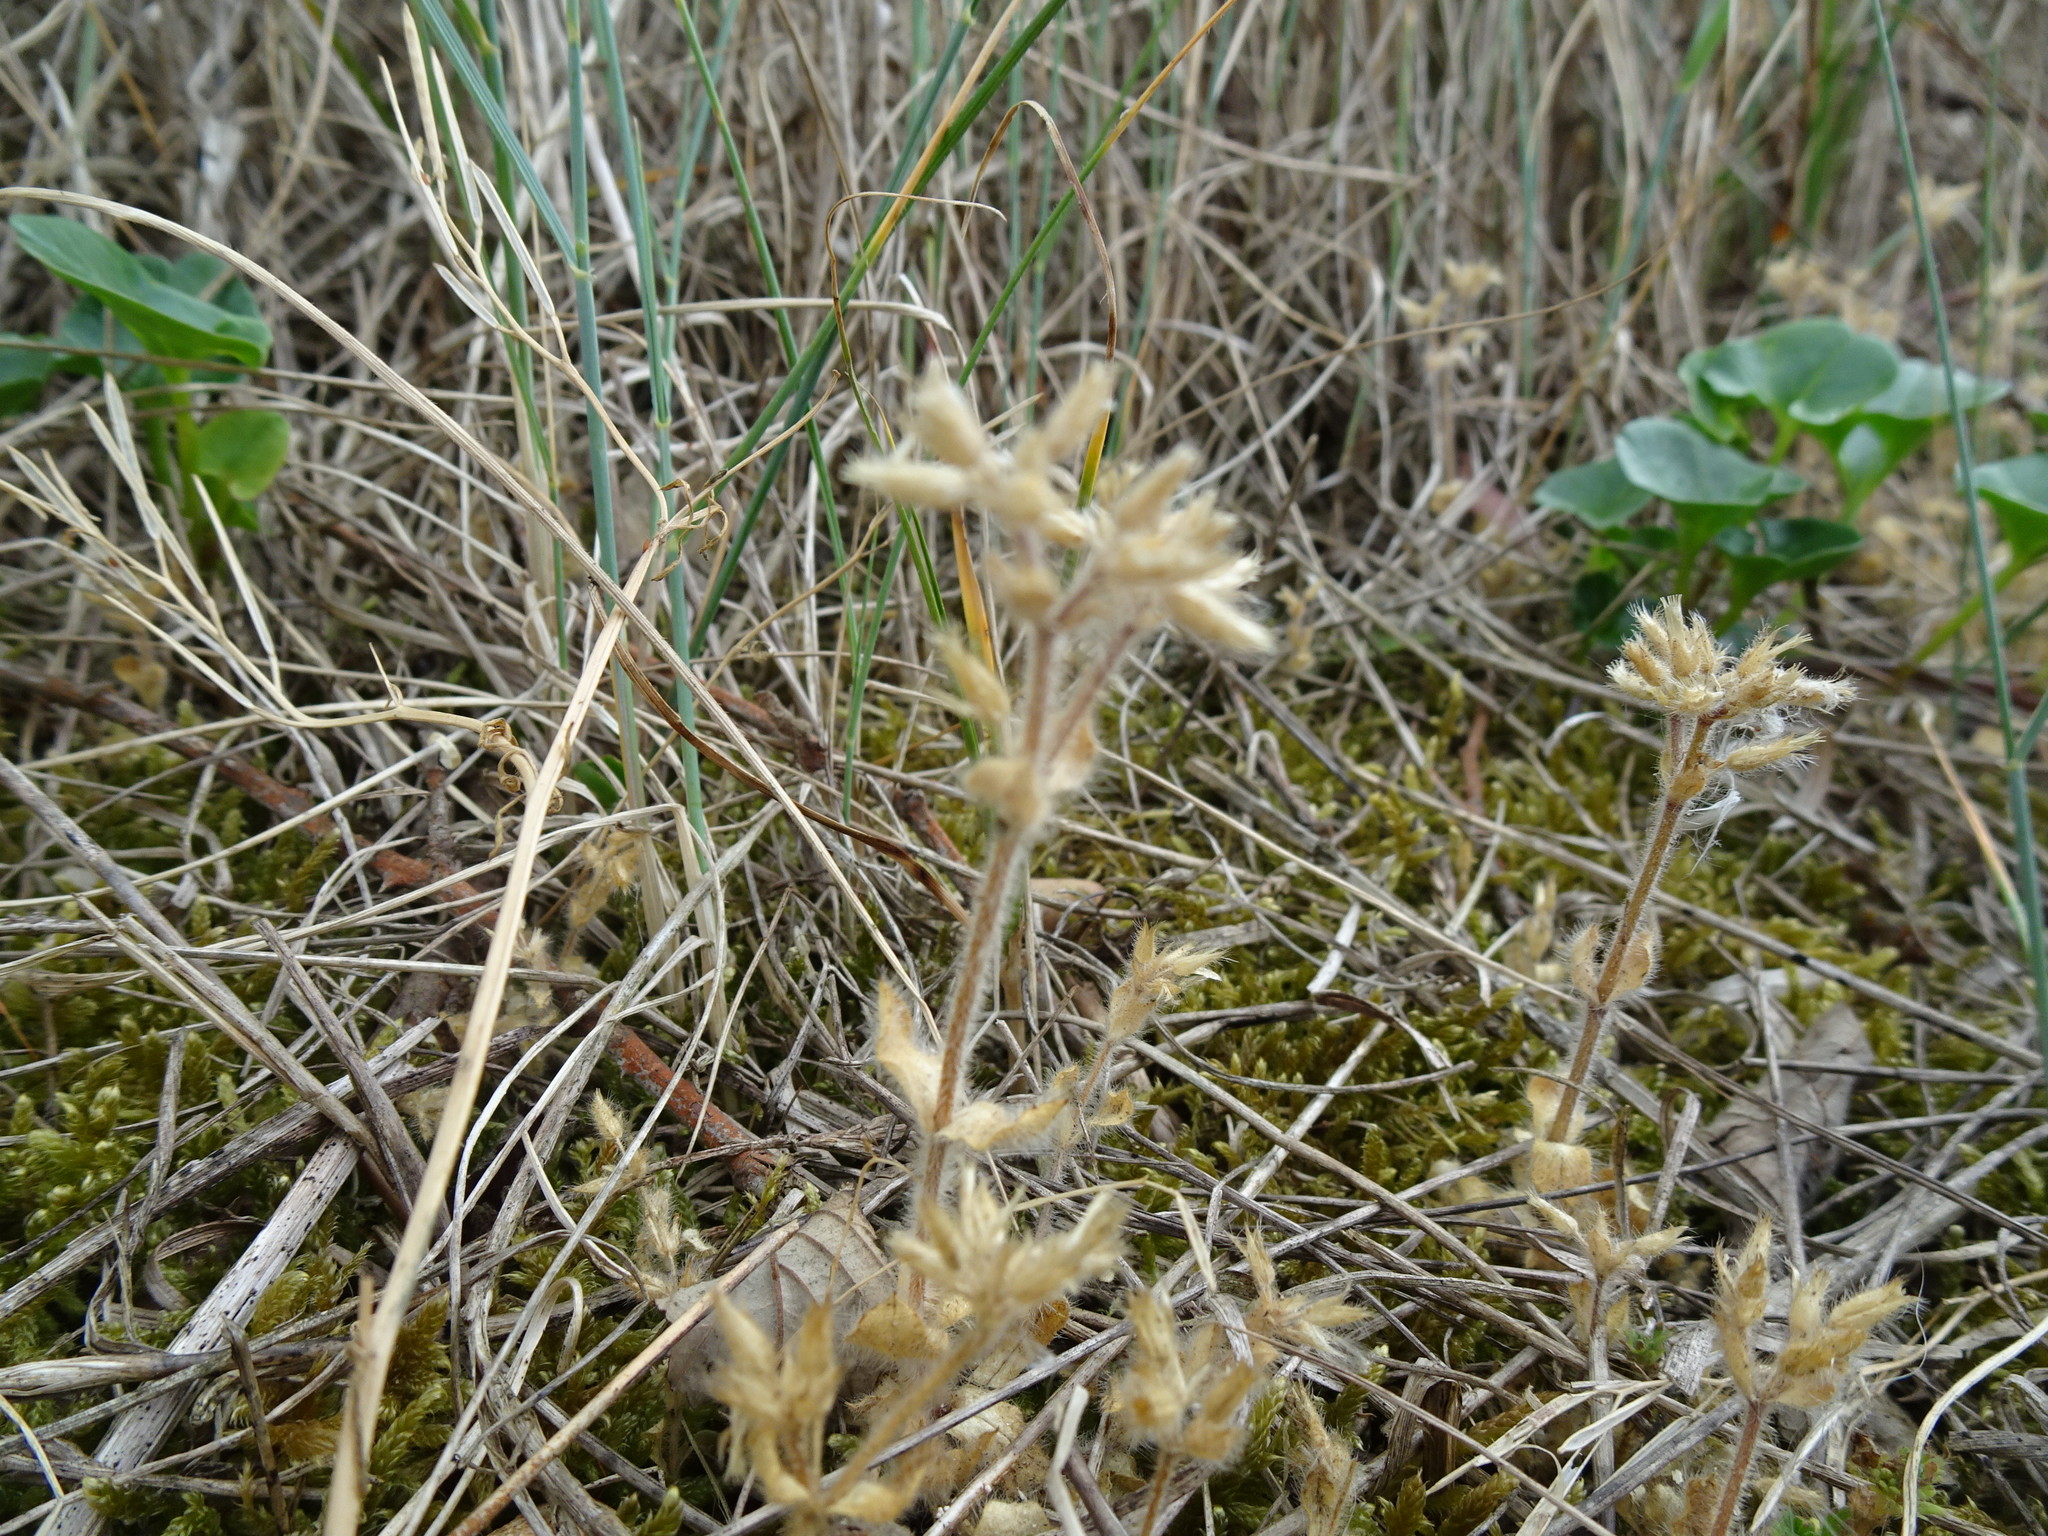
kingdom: Plantae
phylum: Tracheophyta
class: Magnoliopsida
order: Caryophyllales
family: Caryophyllaceae
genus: Cerastium
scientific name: Cerastium glomeratum
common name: Sticky chickweed
